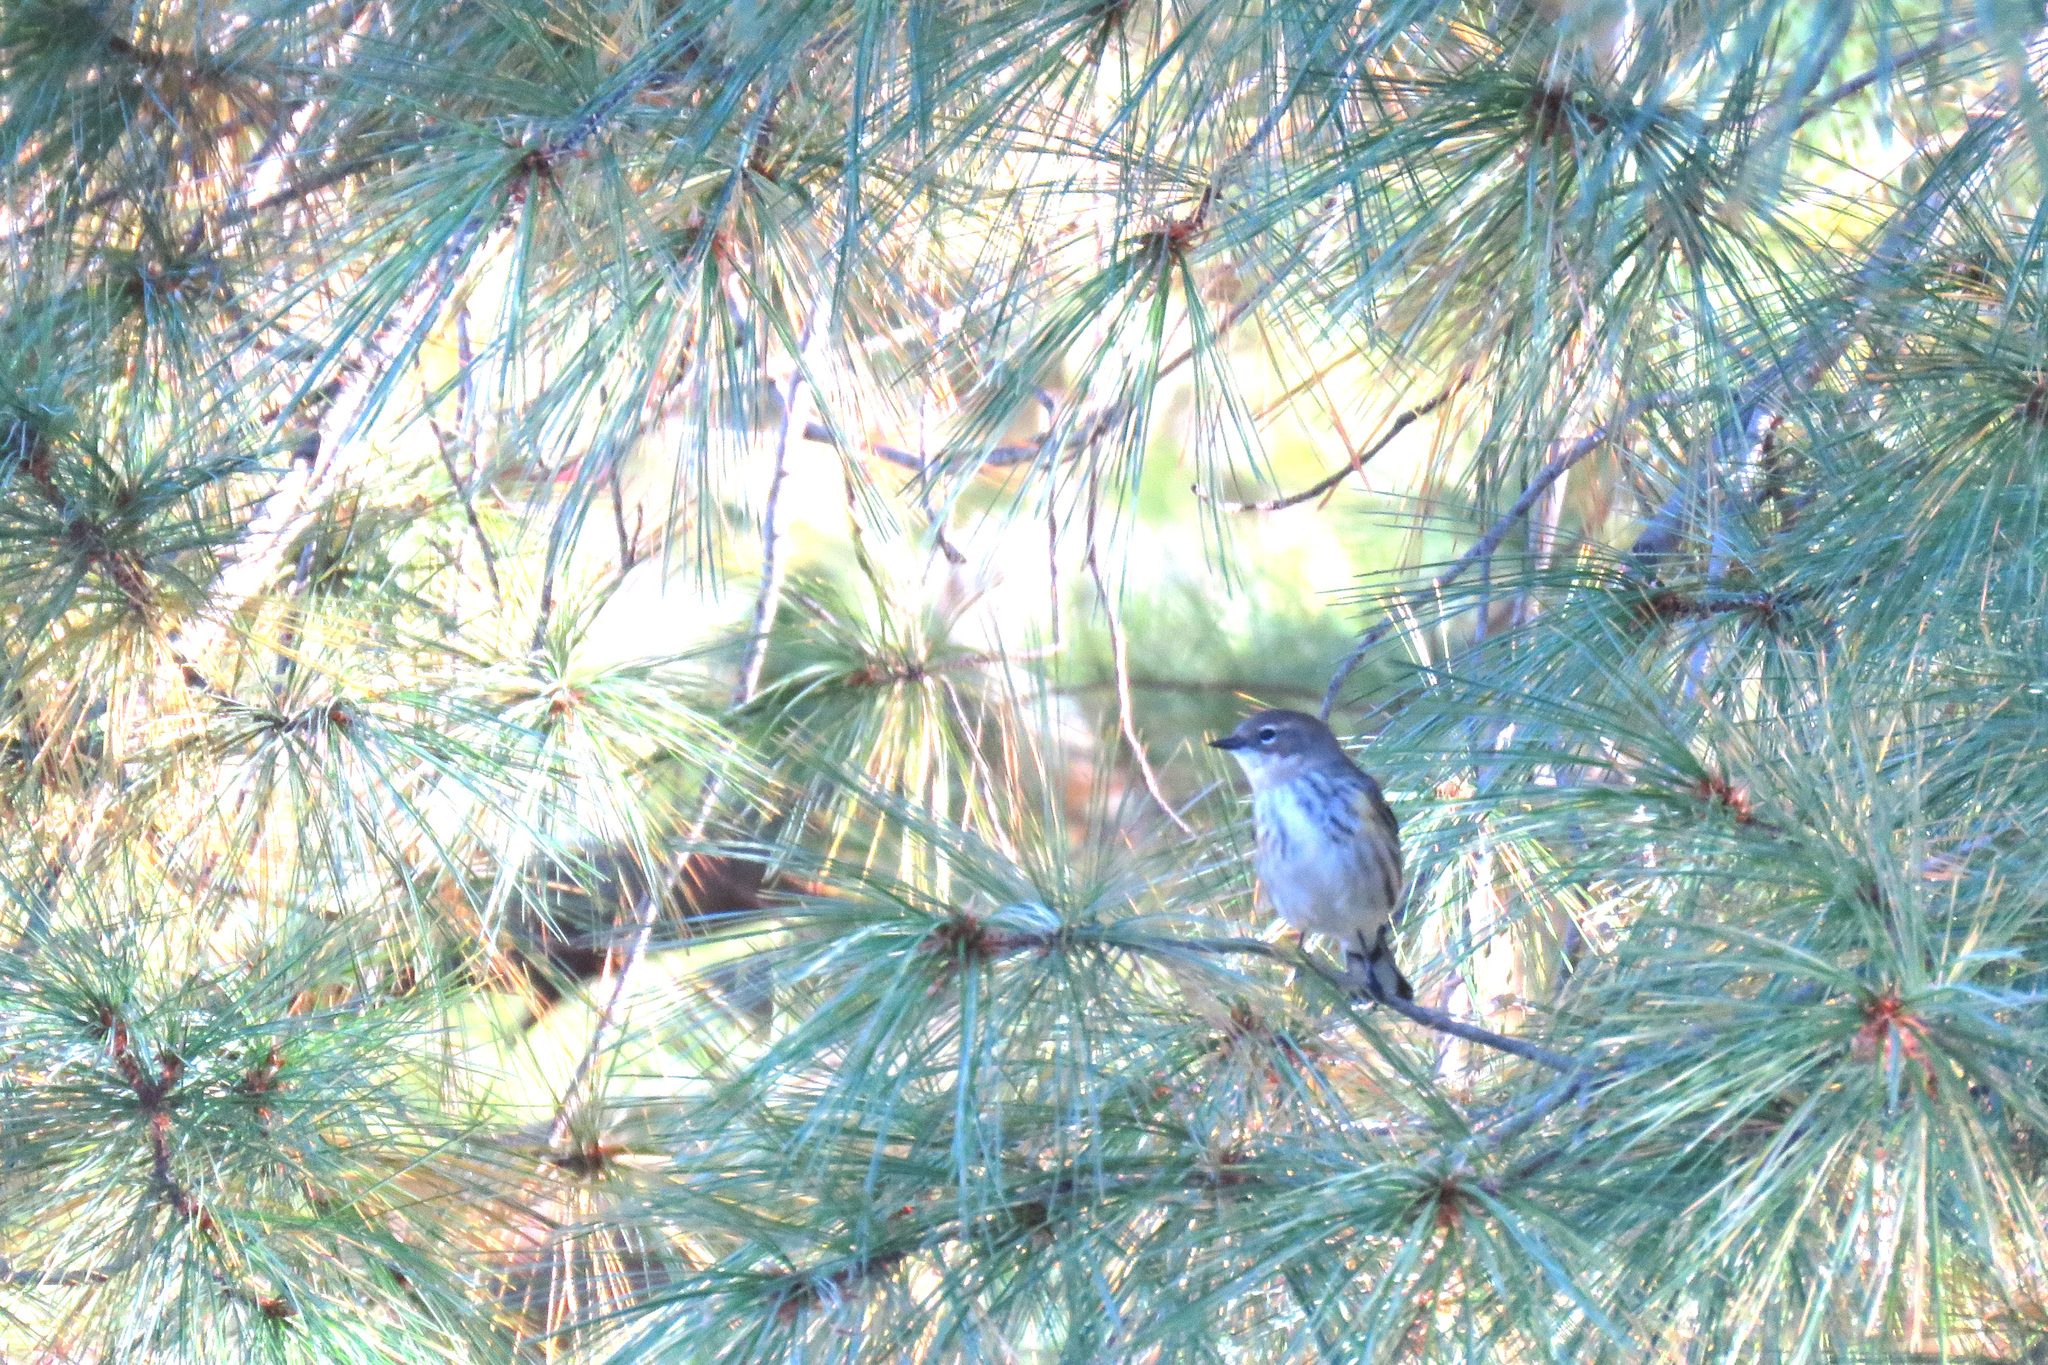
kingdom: Animalia
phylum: Chordata
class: Aves
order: Passeriformes
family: Parulidae
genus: Setophaga
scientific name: Setophaga coronata
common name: Myrtle warbler
